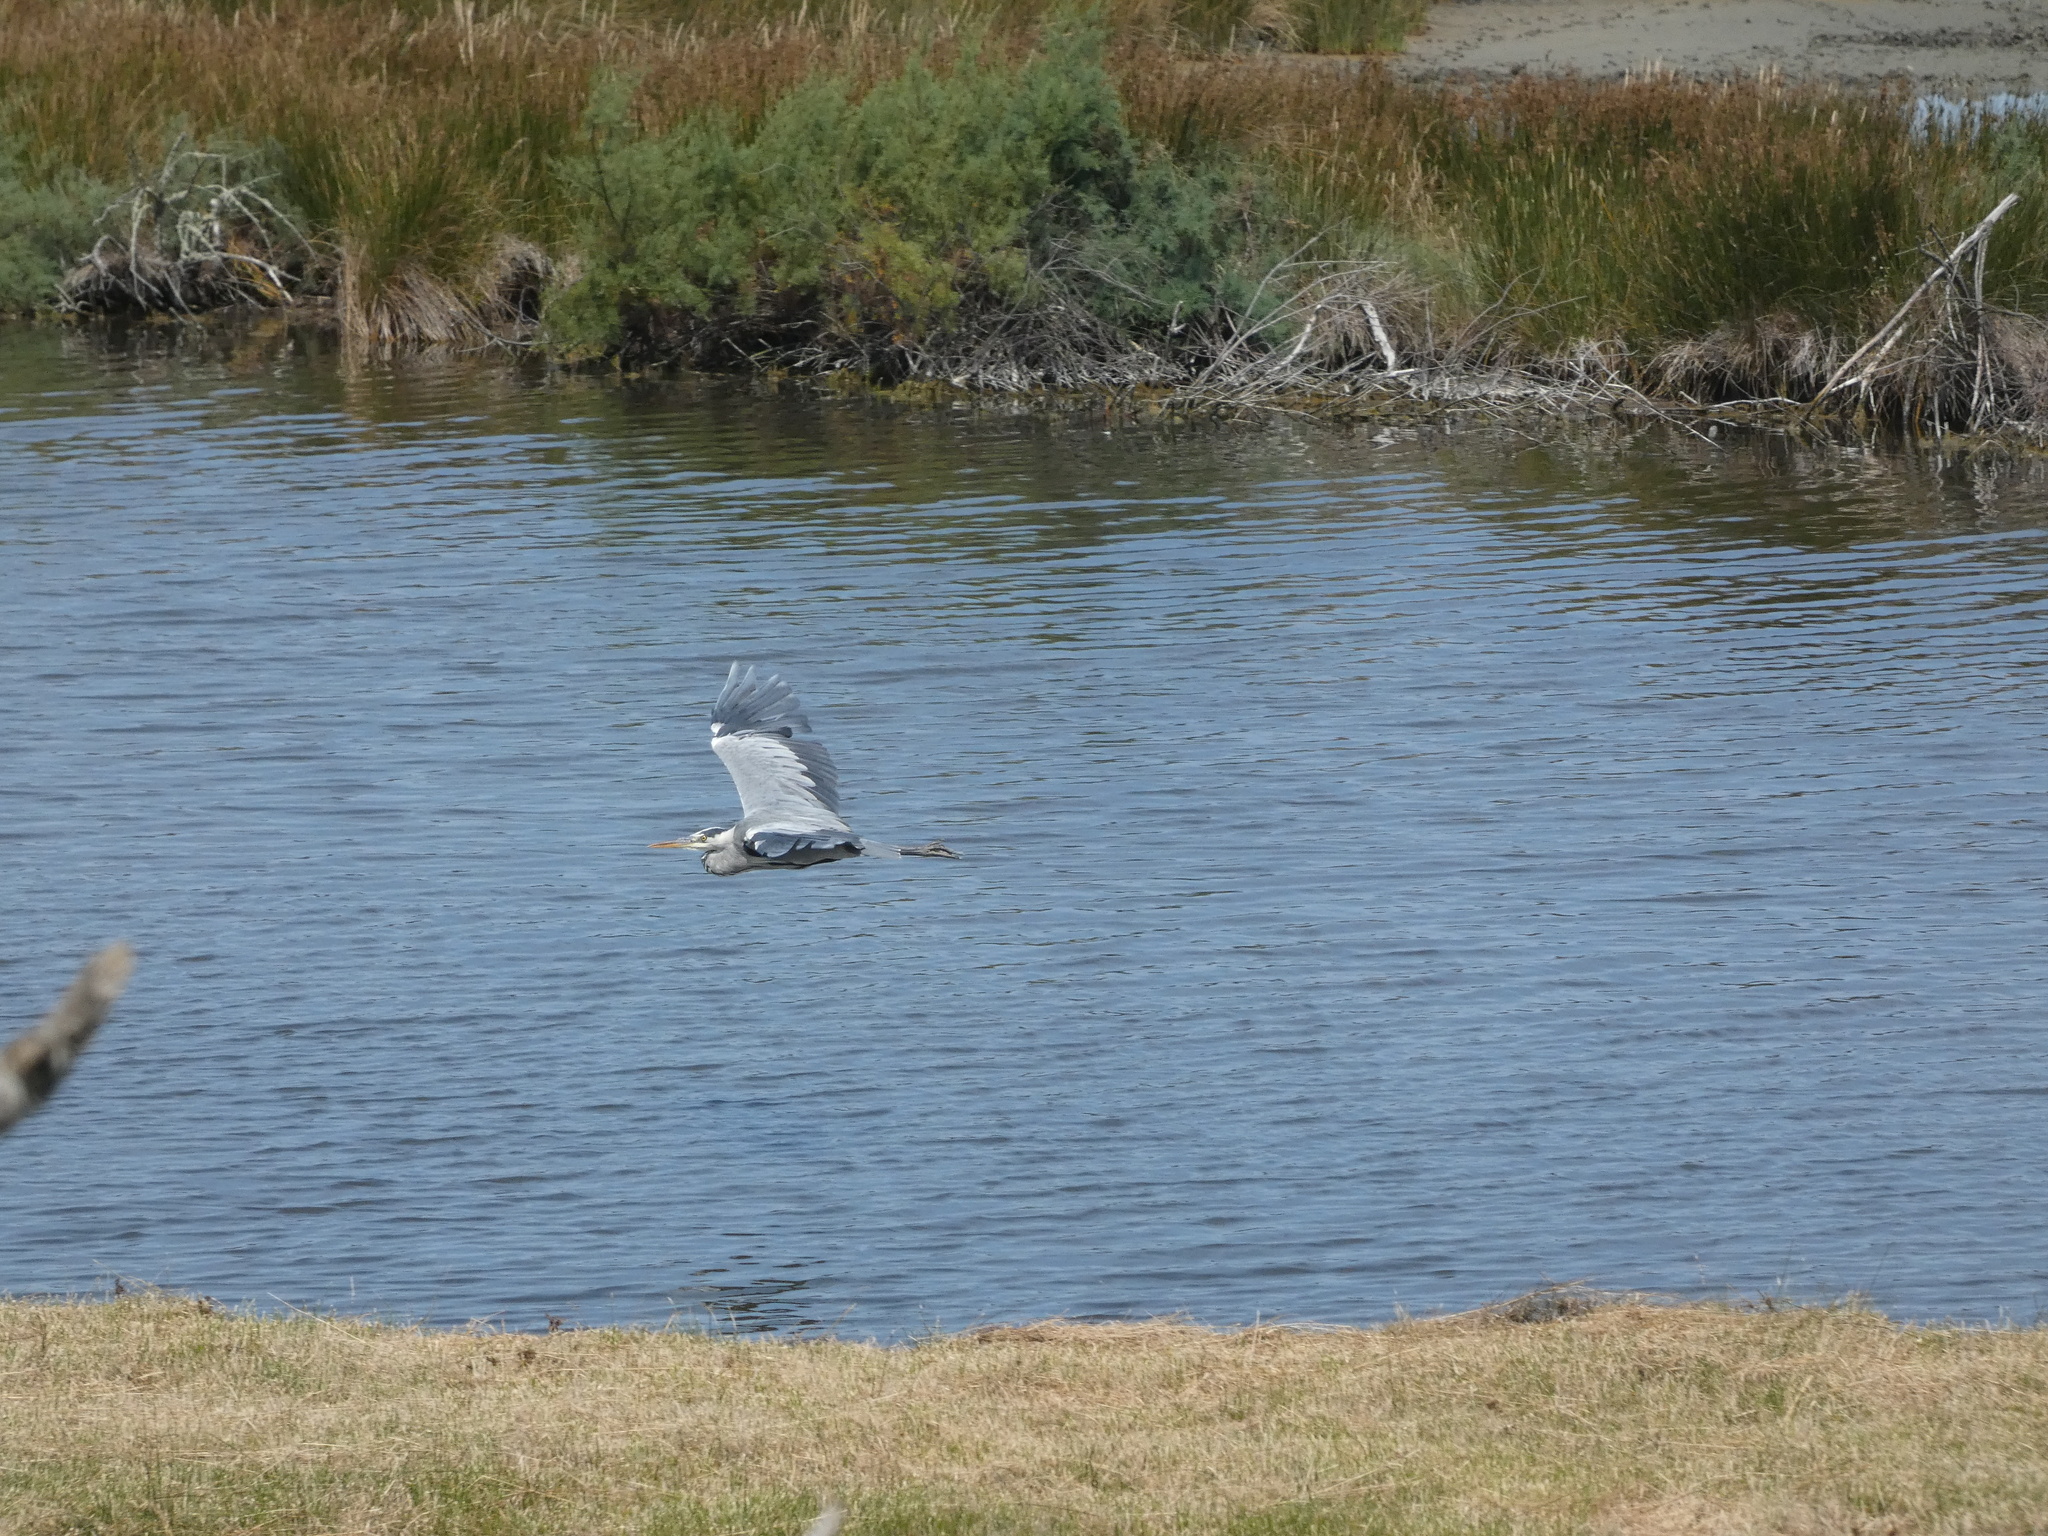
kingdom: Animalia
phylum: Chordata
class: Aves
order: Pelecaniformes
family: Ardeidae
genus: Ardea
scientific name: Ardea cinerea
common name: Grey heron
